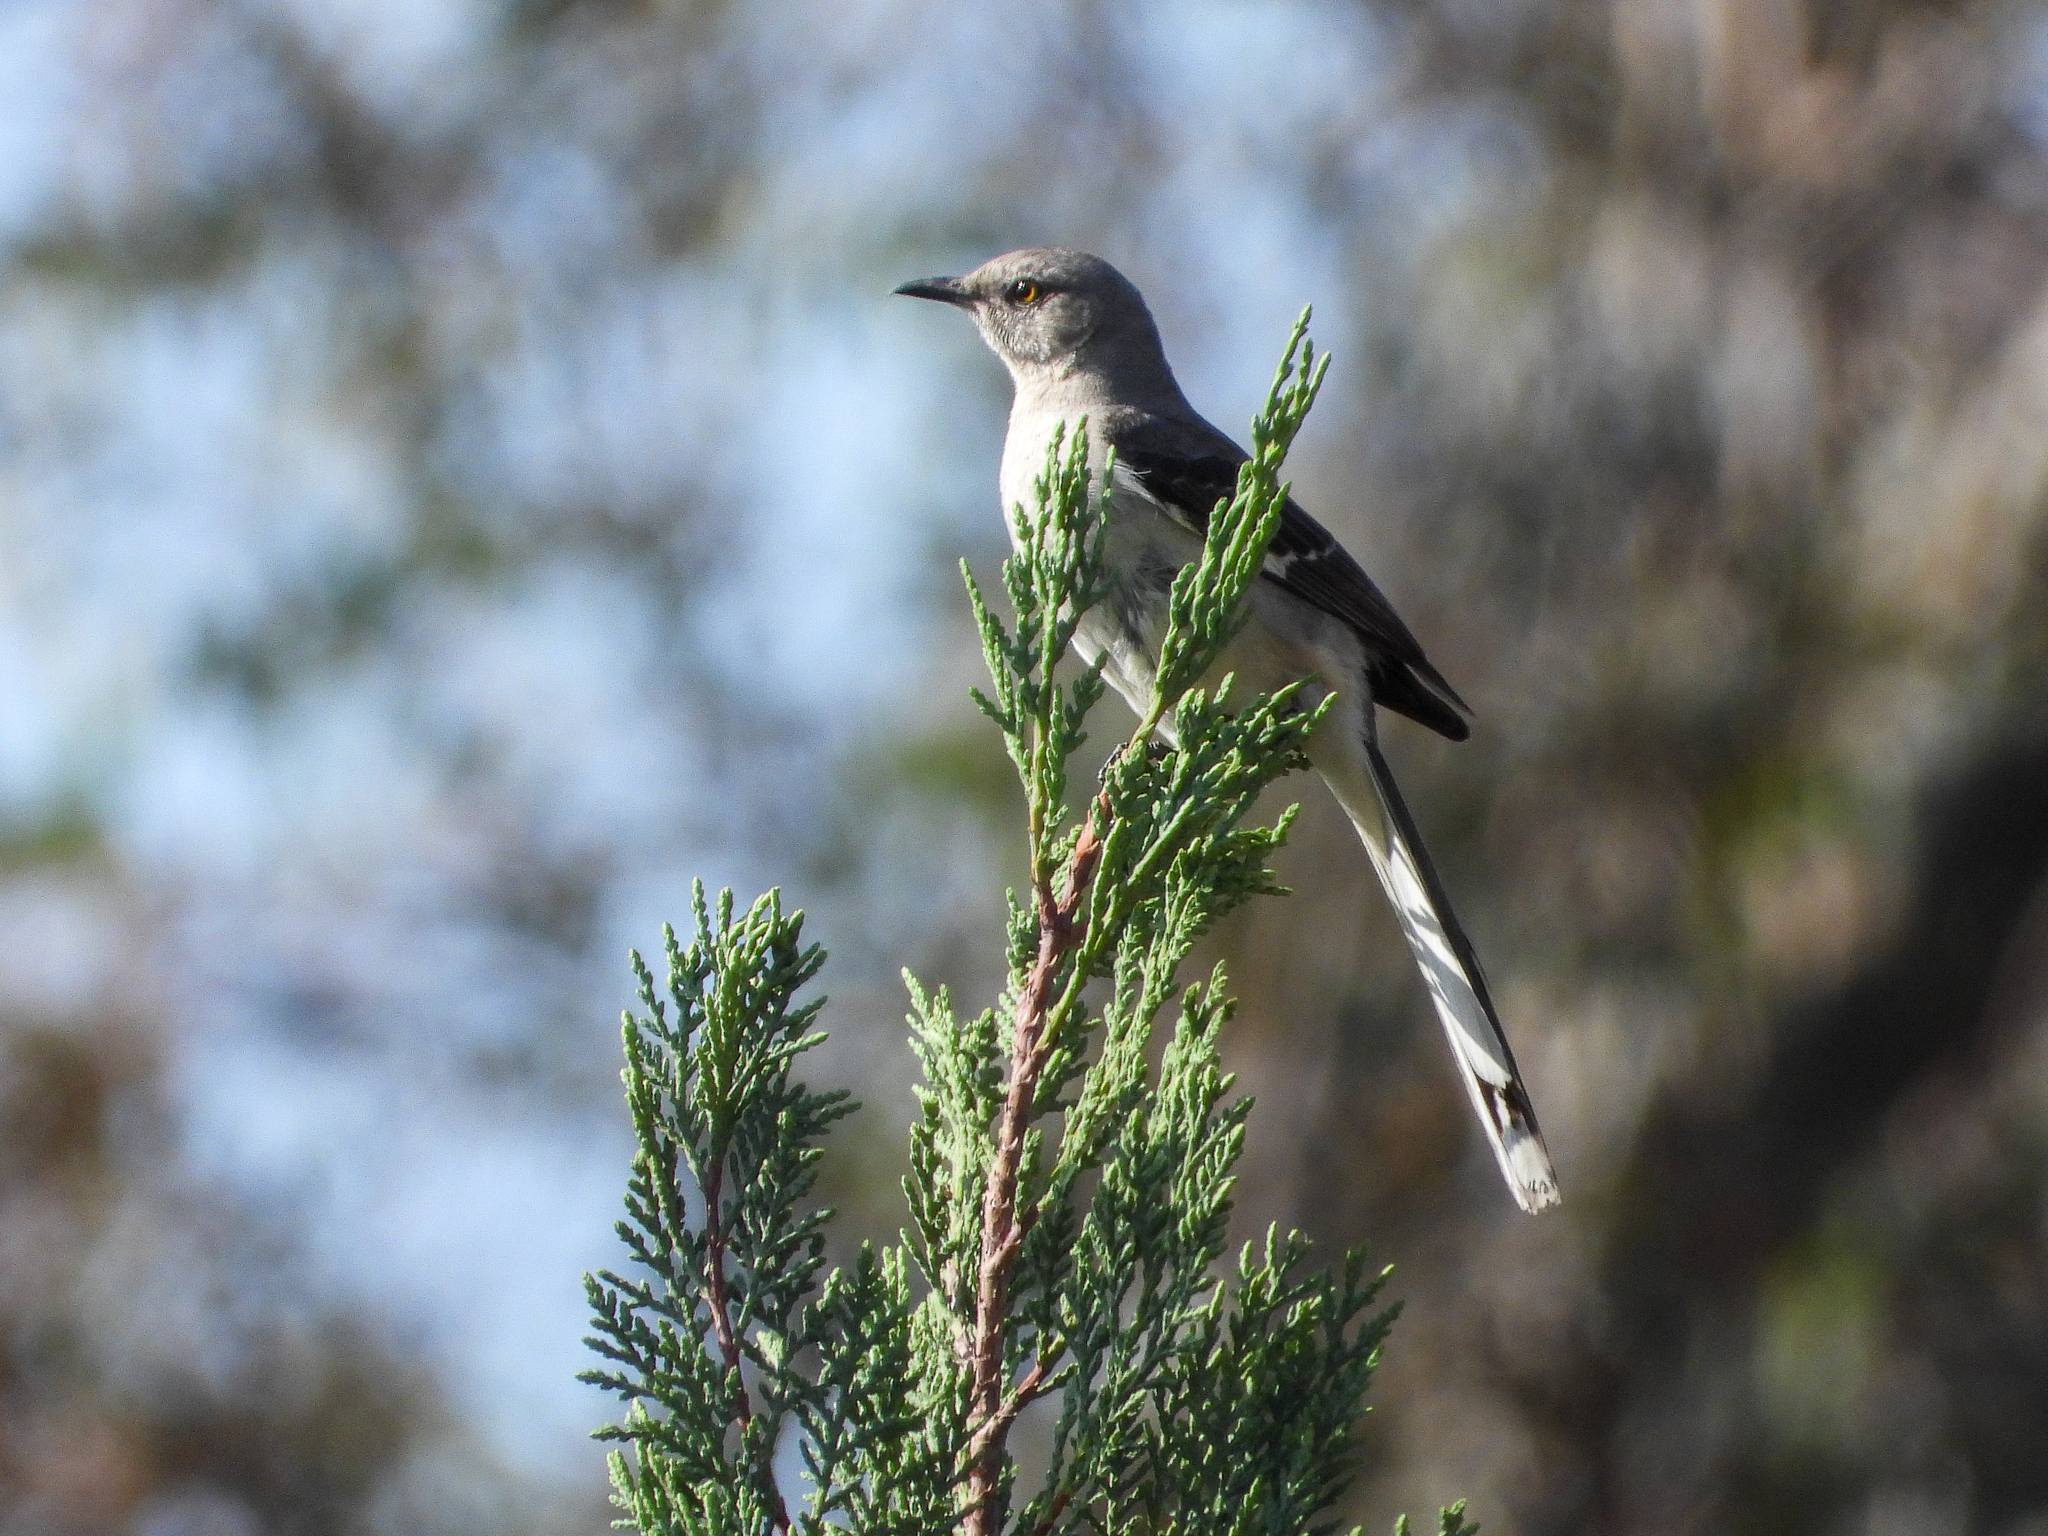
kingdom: Animalia
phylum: Chordata
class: Aves
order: Passeriformes
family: Mimidae
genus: Mimus
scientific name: Mimus polyglottos
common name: Northern mockingbird
